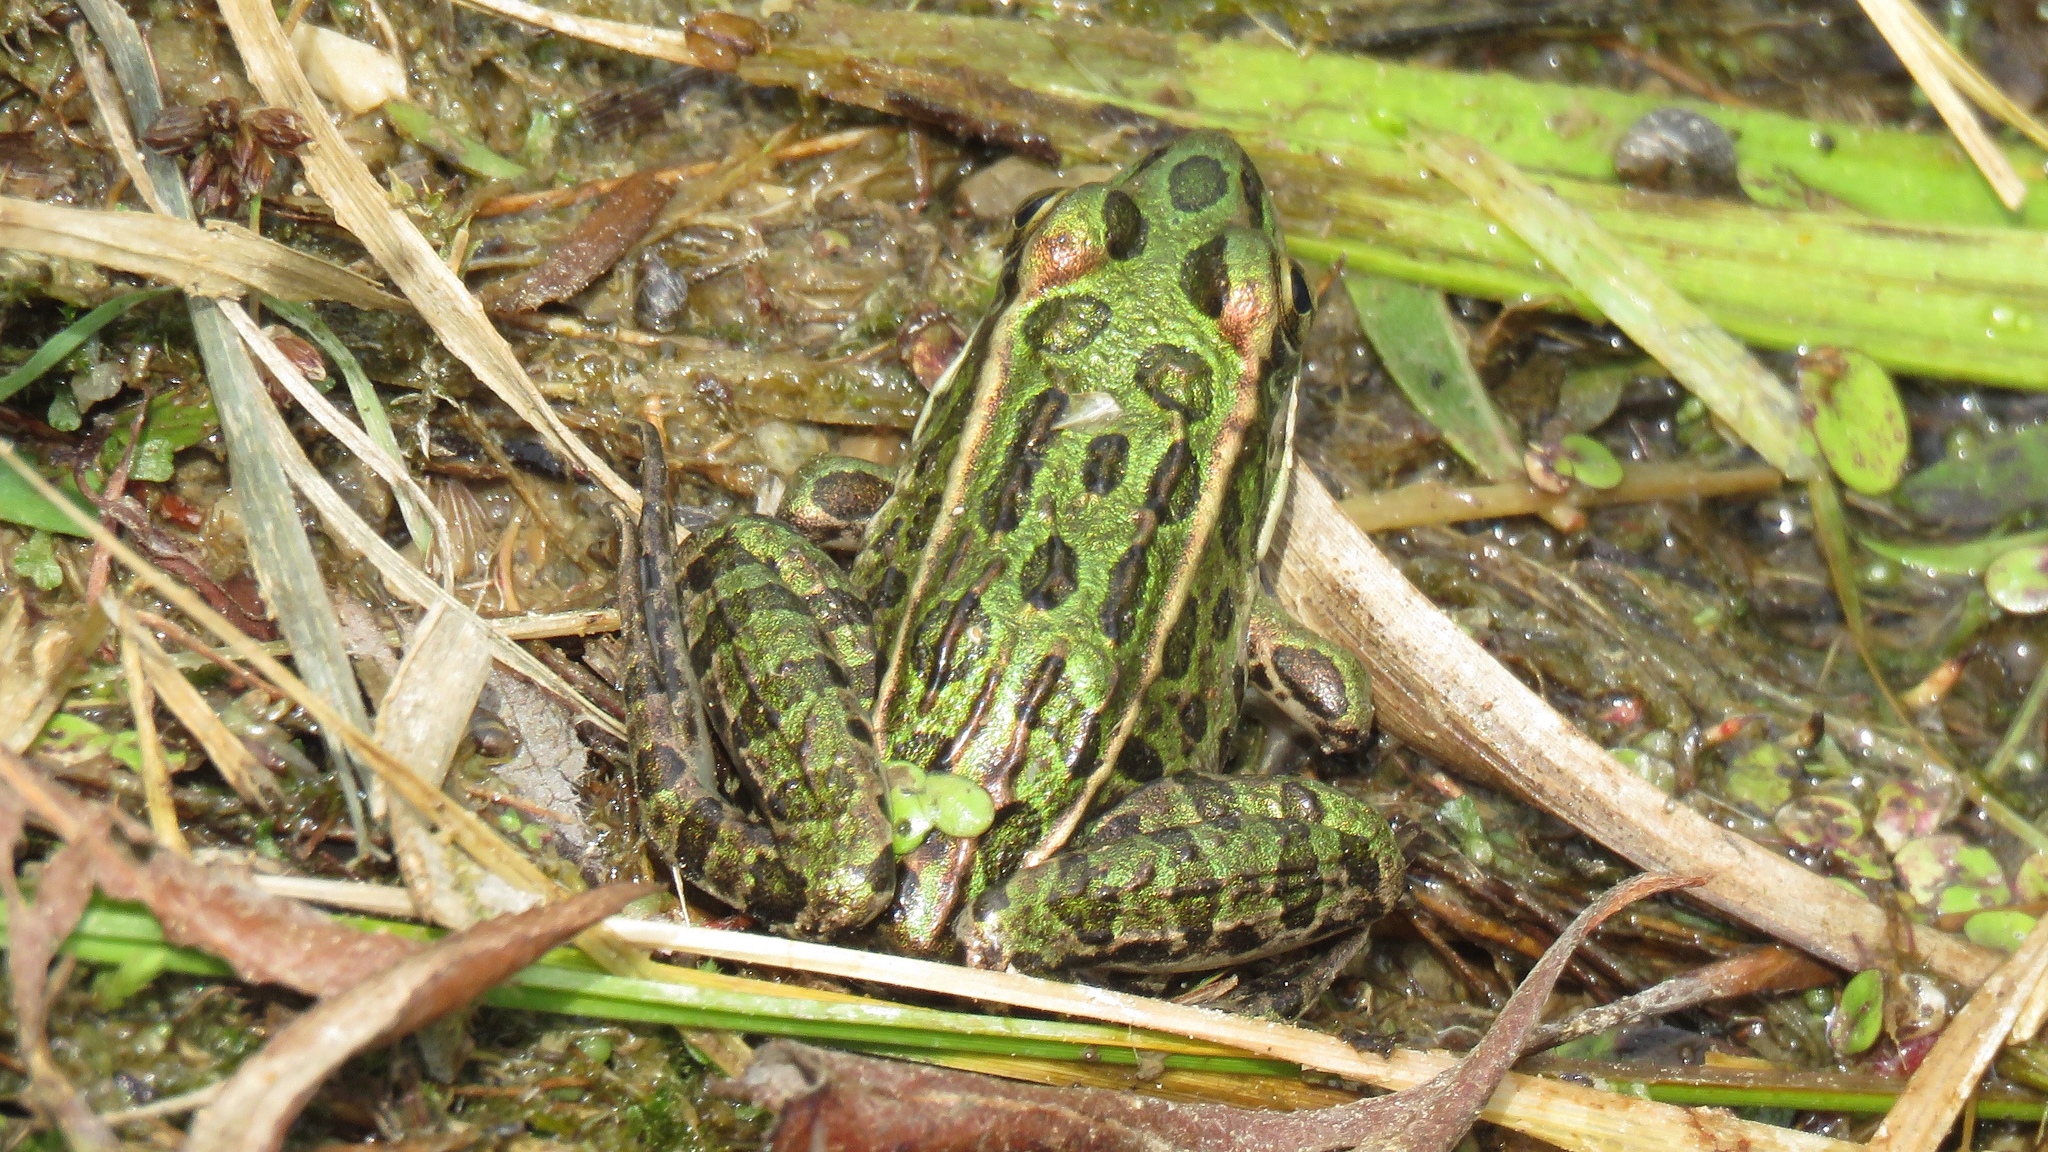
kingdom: Animalia
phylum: Chordata
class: Amphibia
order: Anura
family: Ranidae
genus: Lithobates
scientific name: Lithobates pipiens
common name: Northern leopard frog
